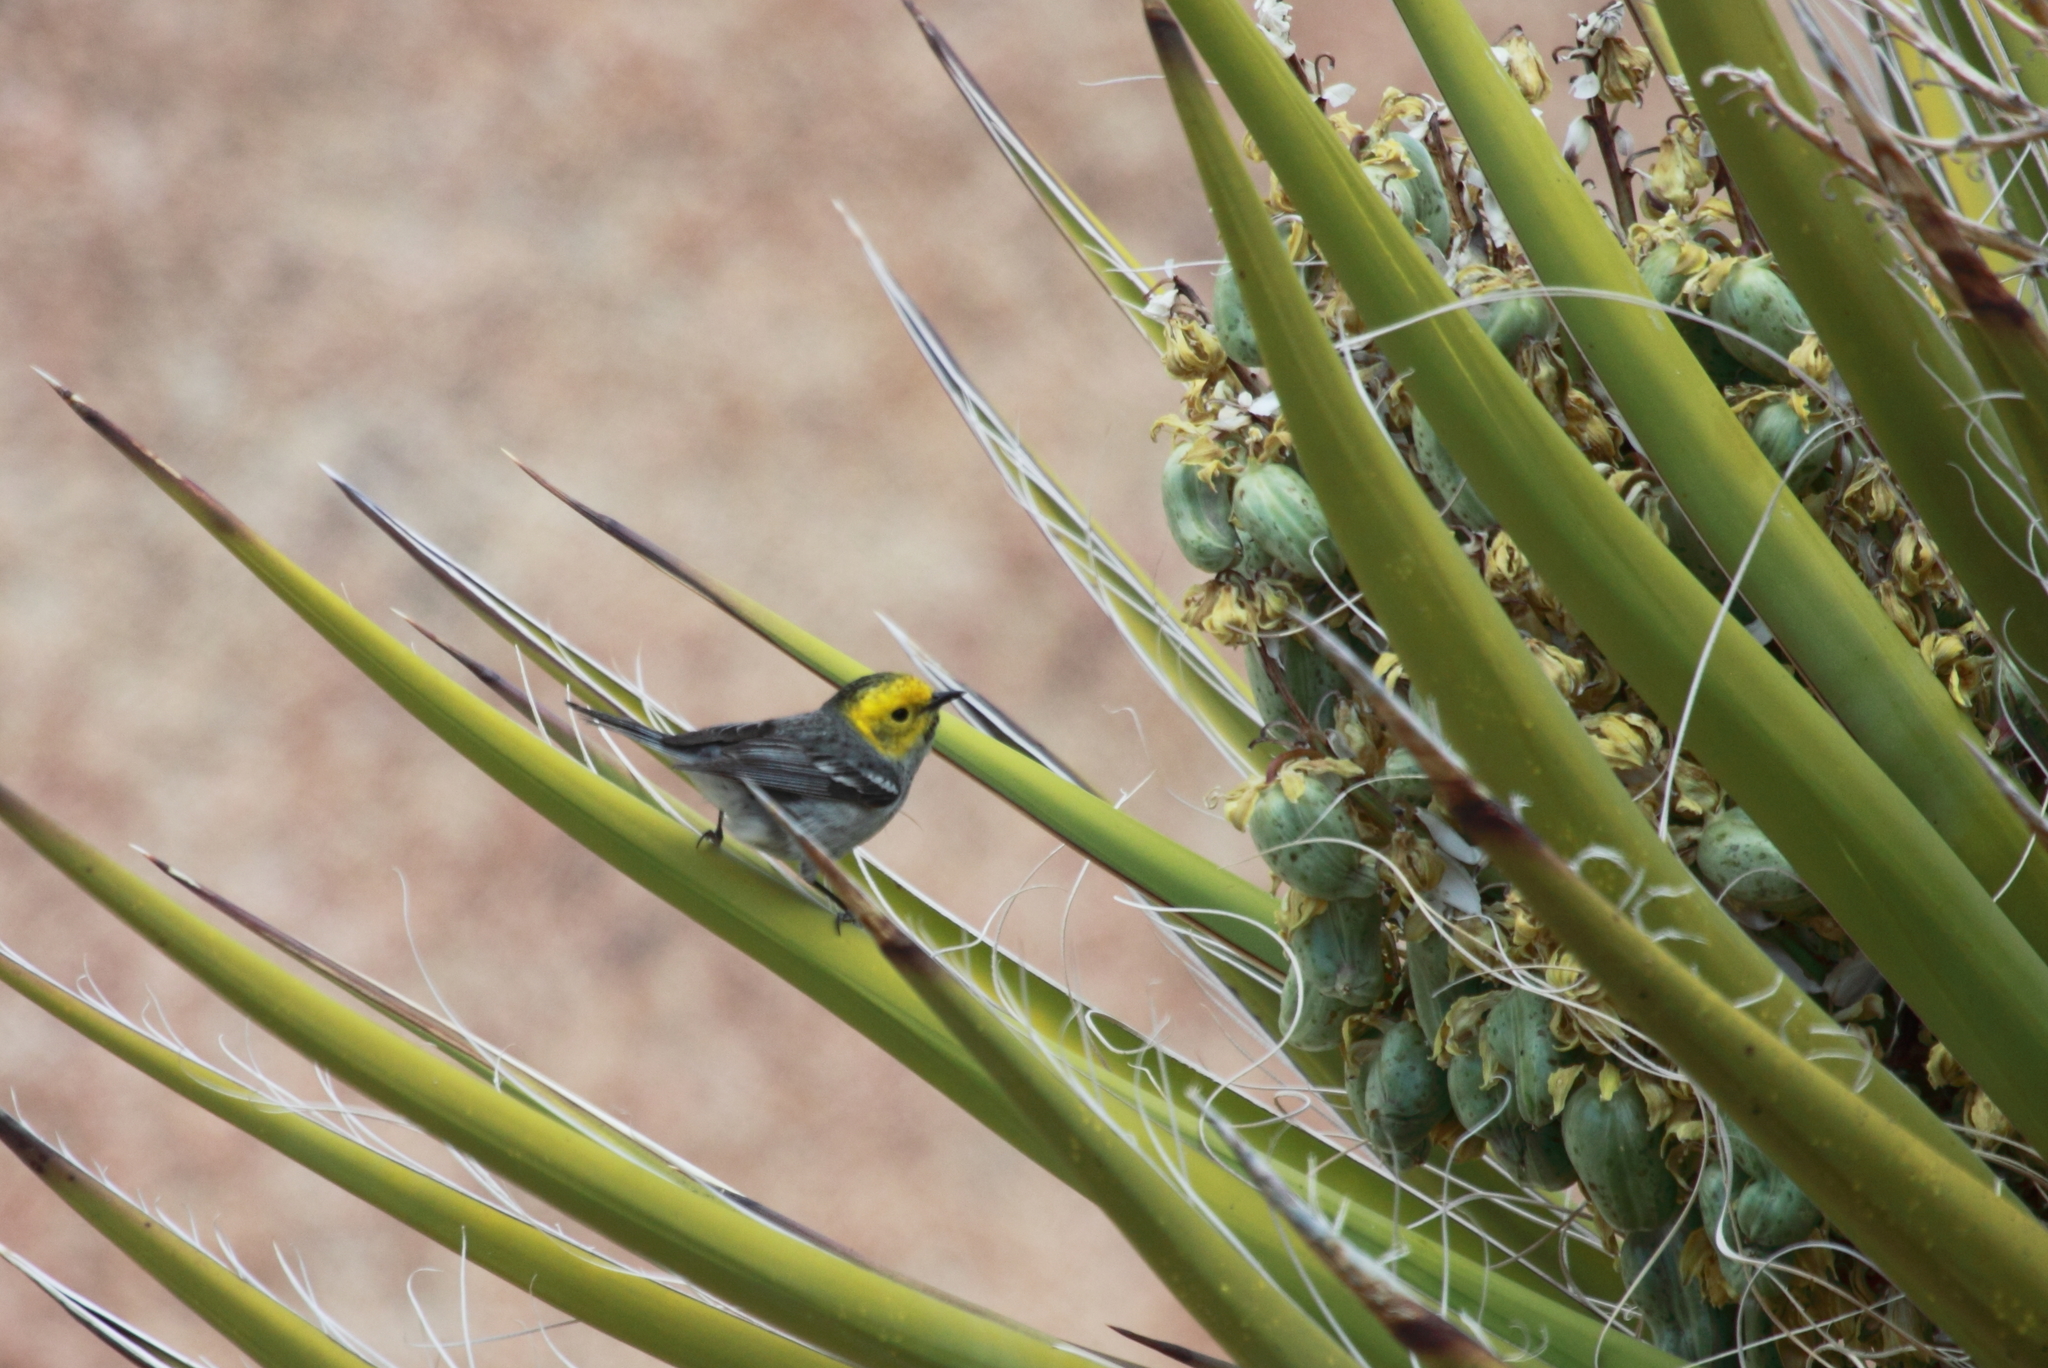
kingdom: Plantae
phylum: Tracheophyta
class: Liliopsida
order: Asparagales
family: Asparagaceae
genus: Yucca
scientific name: Yucca schidigera
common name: Mojave yucca
